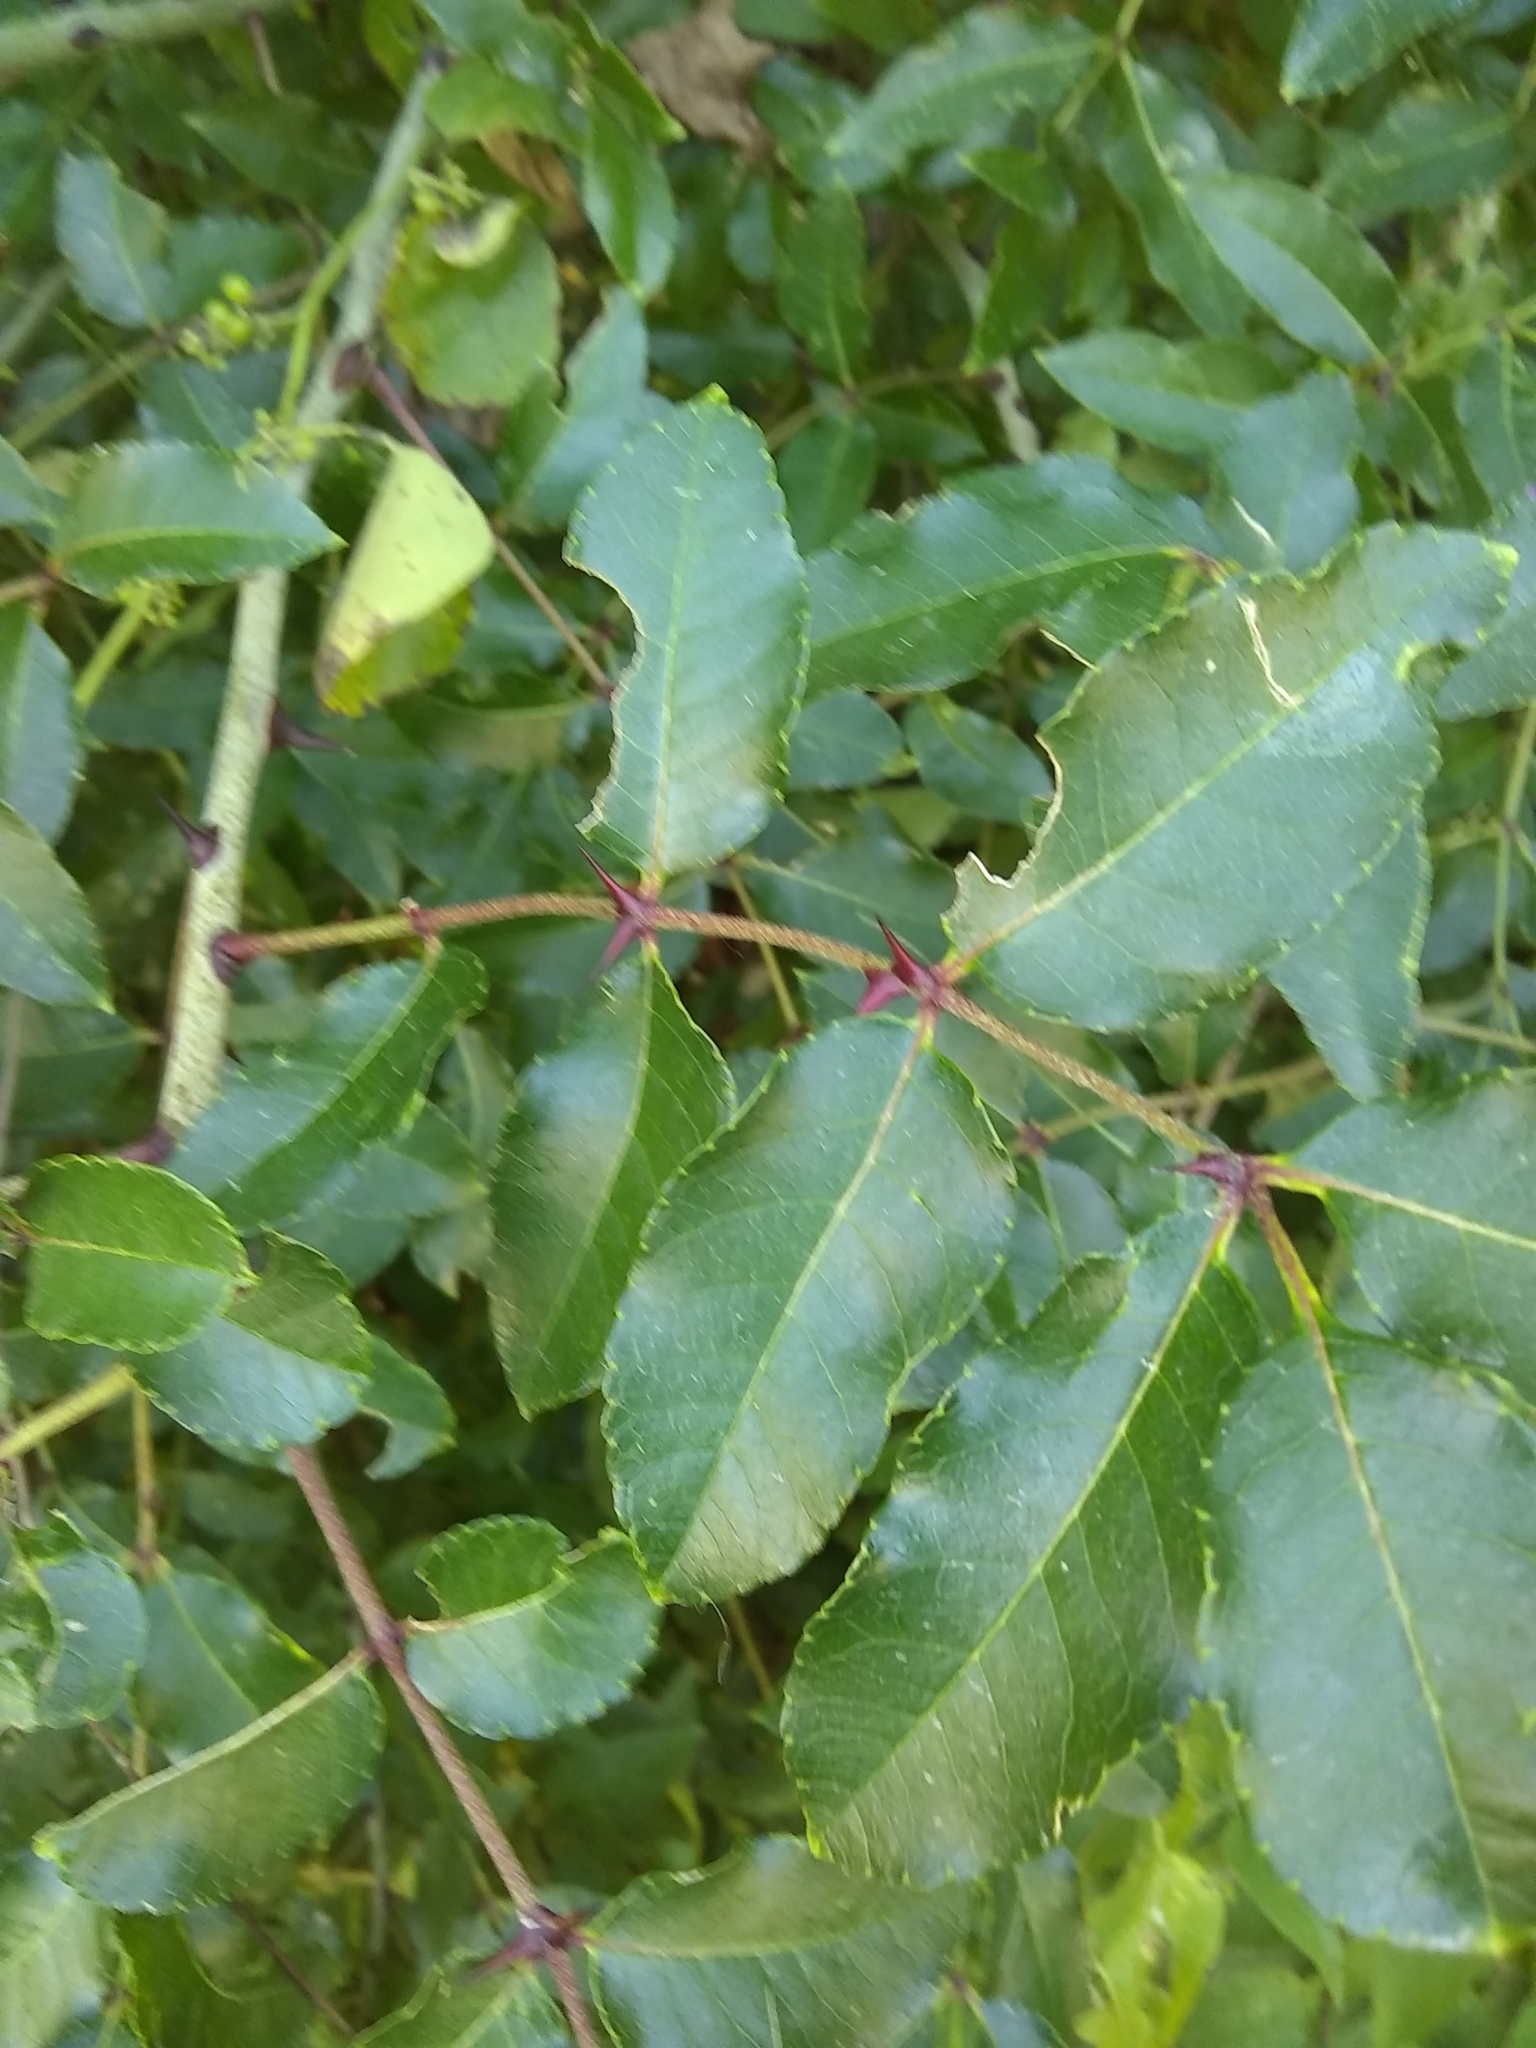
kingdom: Plantae
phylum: Tracheophyta
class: Magnoliopsida
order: Sapindales
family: Rutaceae
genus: Zanthoxylum
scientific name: Zanthoxylum clava-herculis
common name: Hercules'-club
